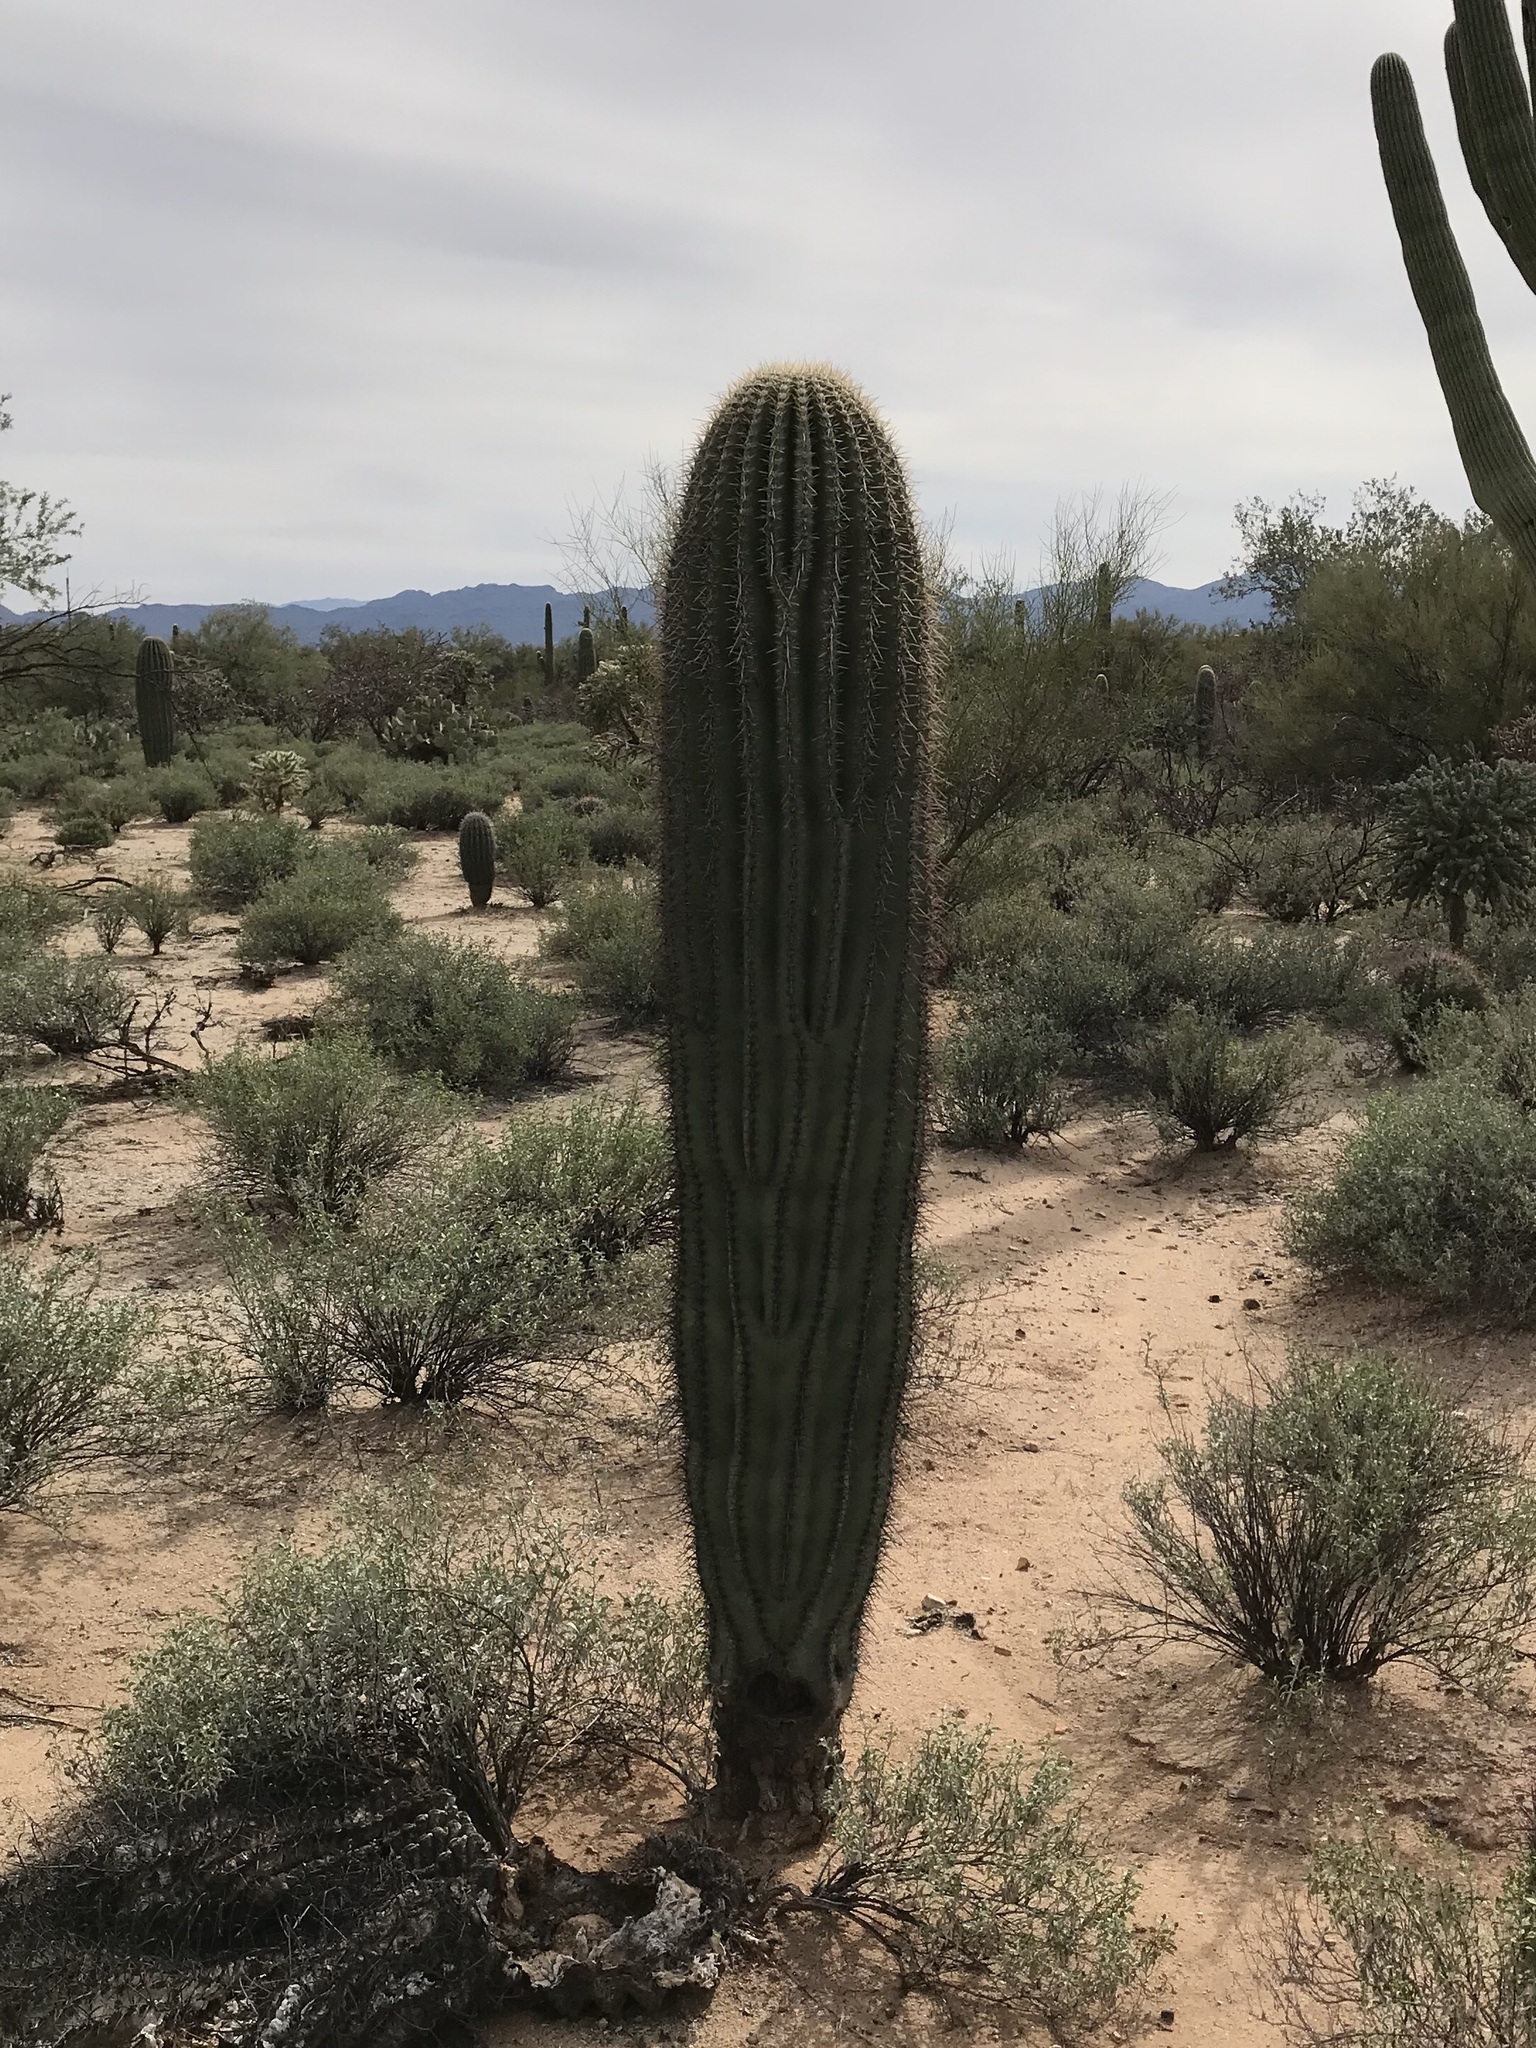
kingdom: Plantae
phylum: Tracheophyta
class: Magnoliopsida
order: Caryophyllales
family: Cactaceae
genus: Carnegiea
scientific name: Carnegiea gigantea
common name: Saguaro
